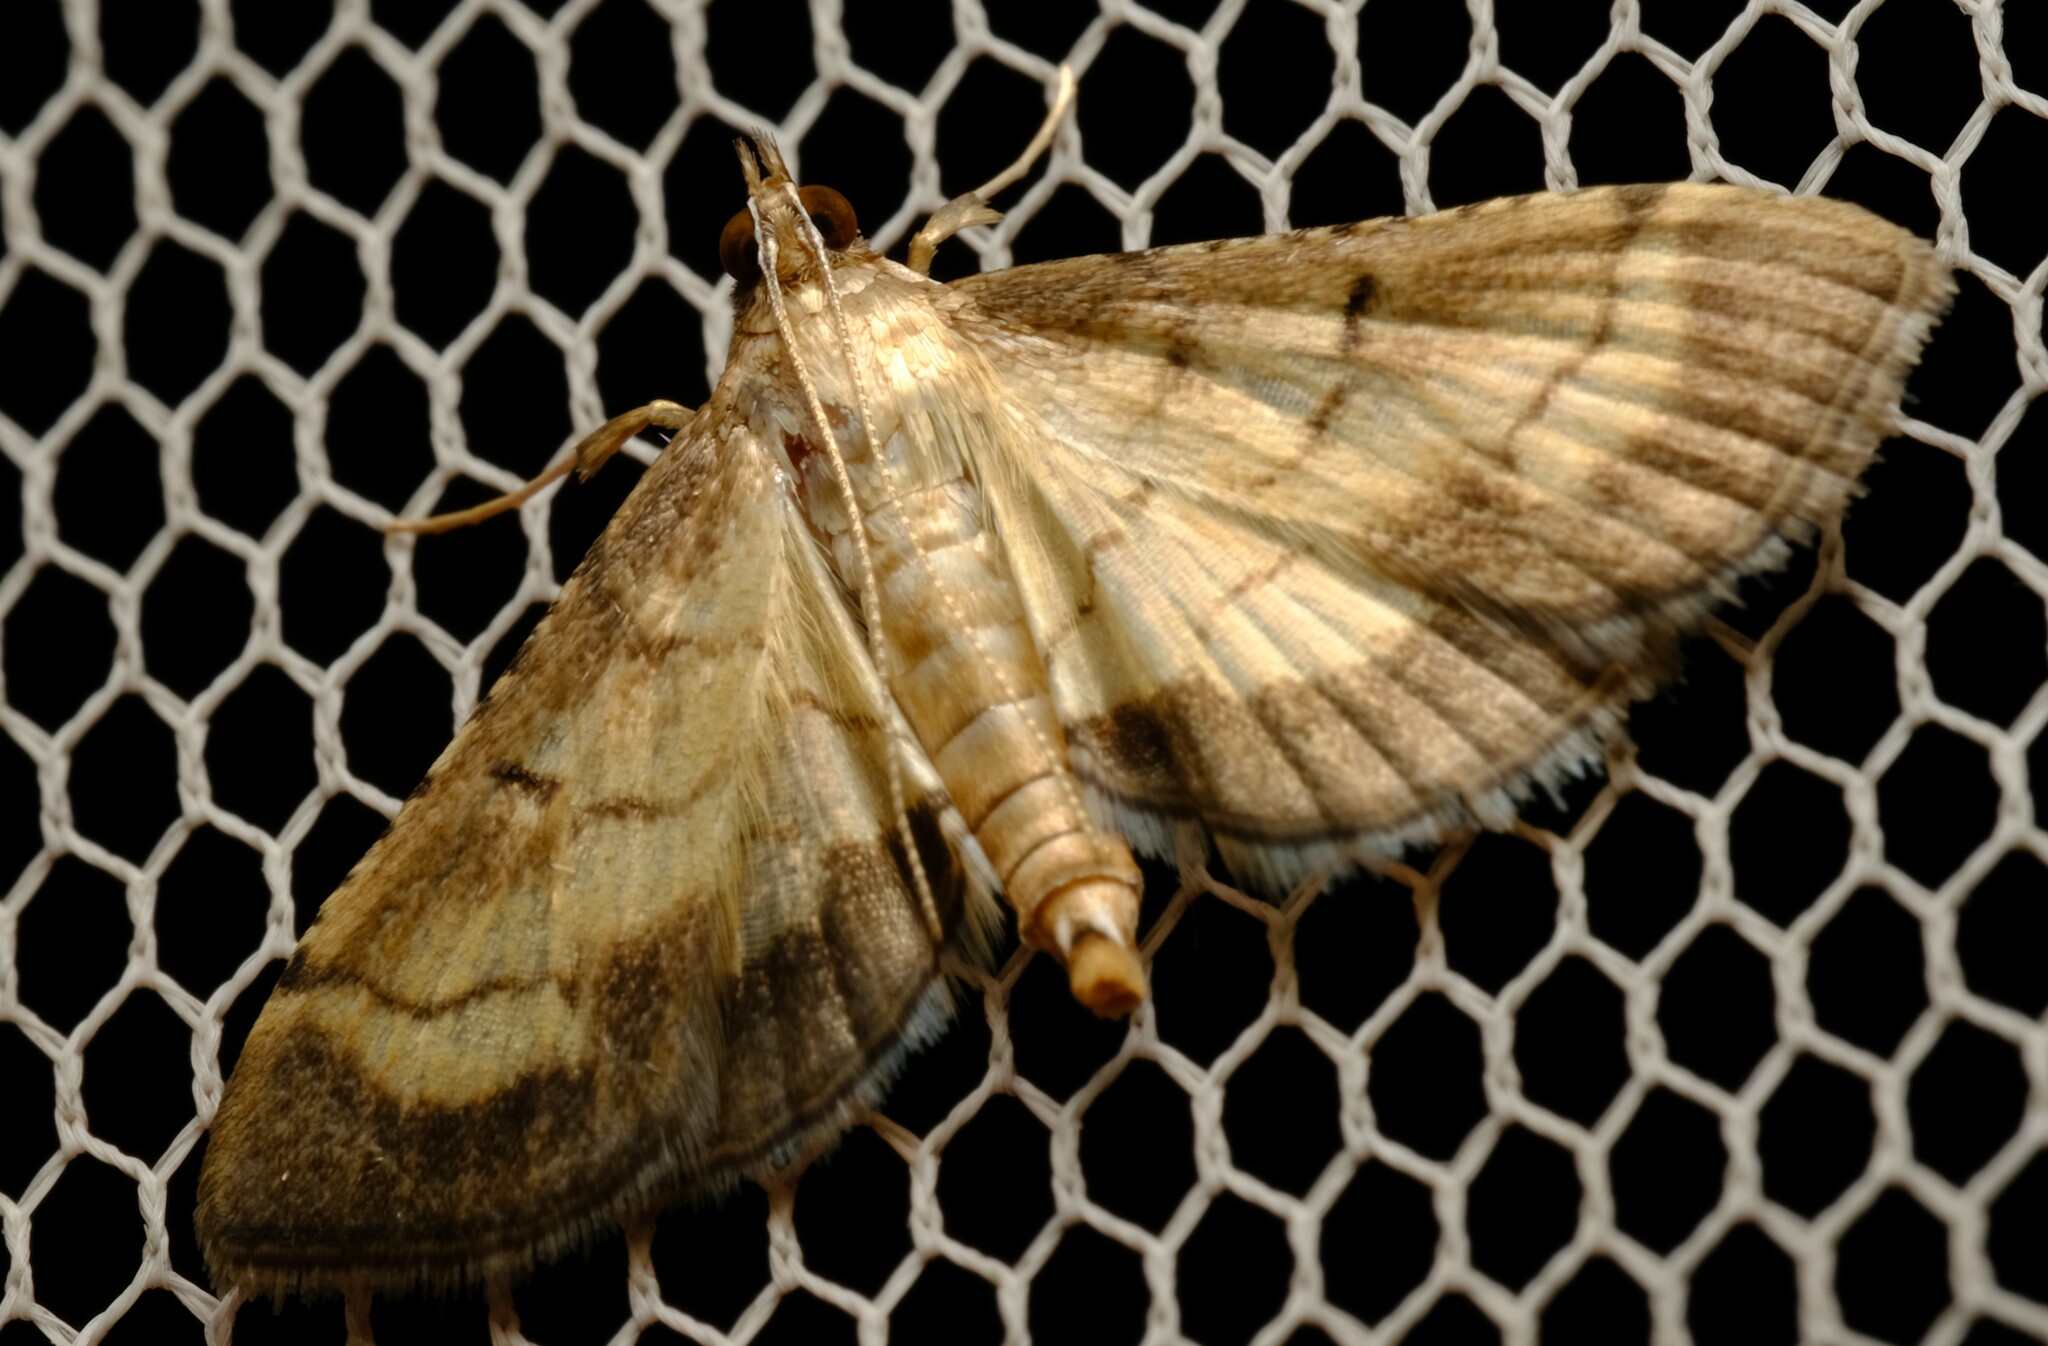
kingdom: Animalia
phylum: Arthropoda
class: Insecta
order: Lepidoptera
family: Crambidae
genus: Cnaphalocrocis
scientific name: Cnaphalocrocis poeyalis
